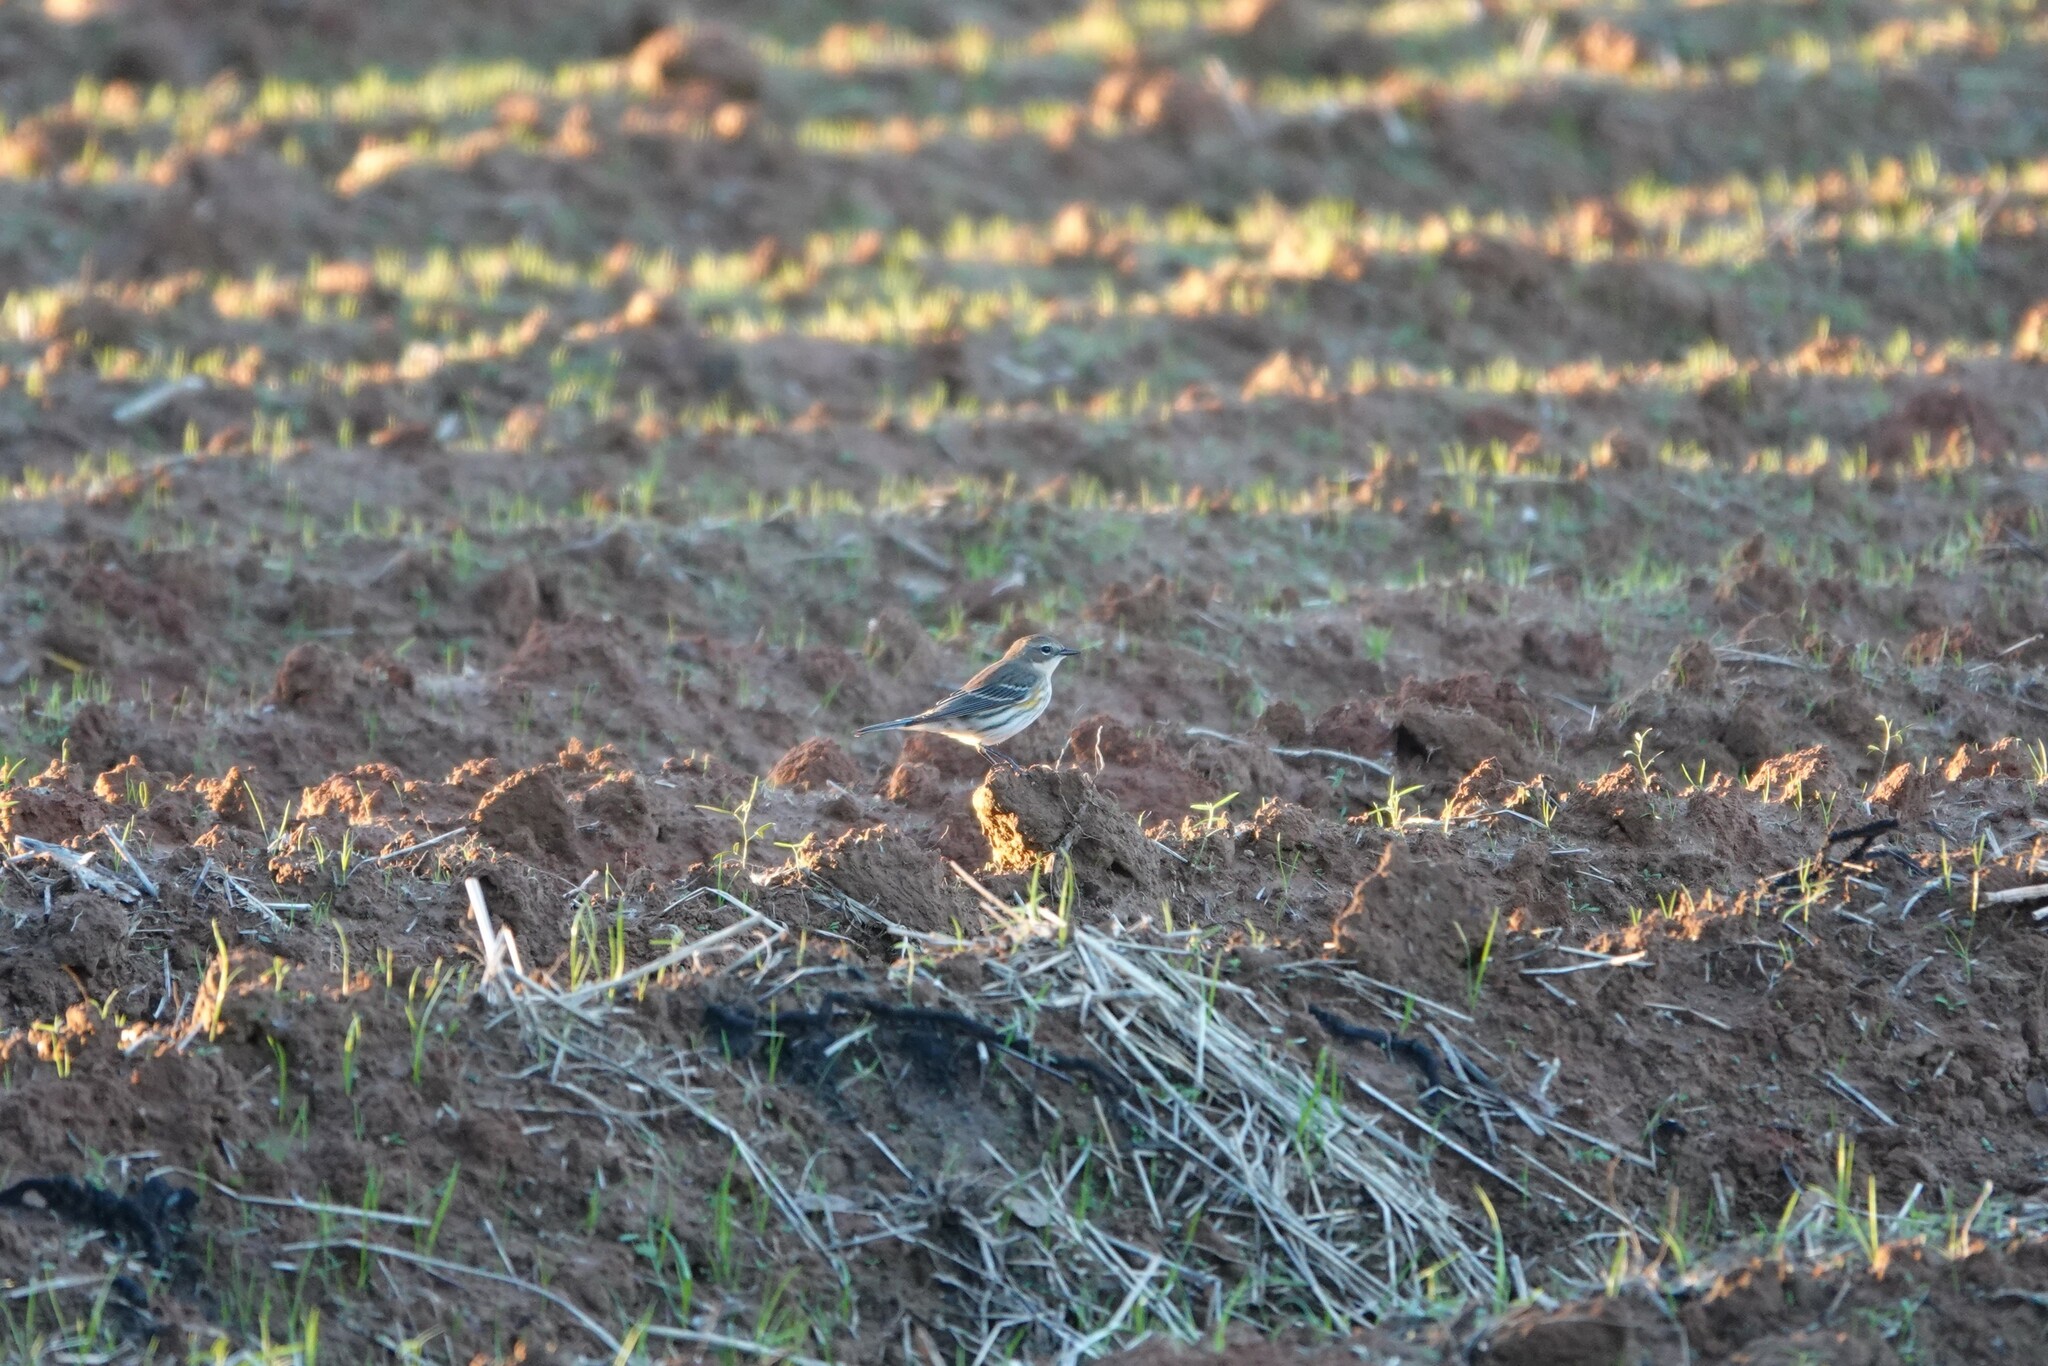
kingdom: Animalia
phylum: Chordata
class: Aves
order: Passeriformes
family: Parulidae
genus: Setophaga
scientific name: Setophaga coronata
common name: Myrtle warbler
